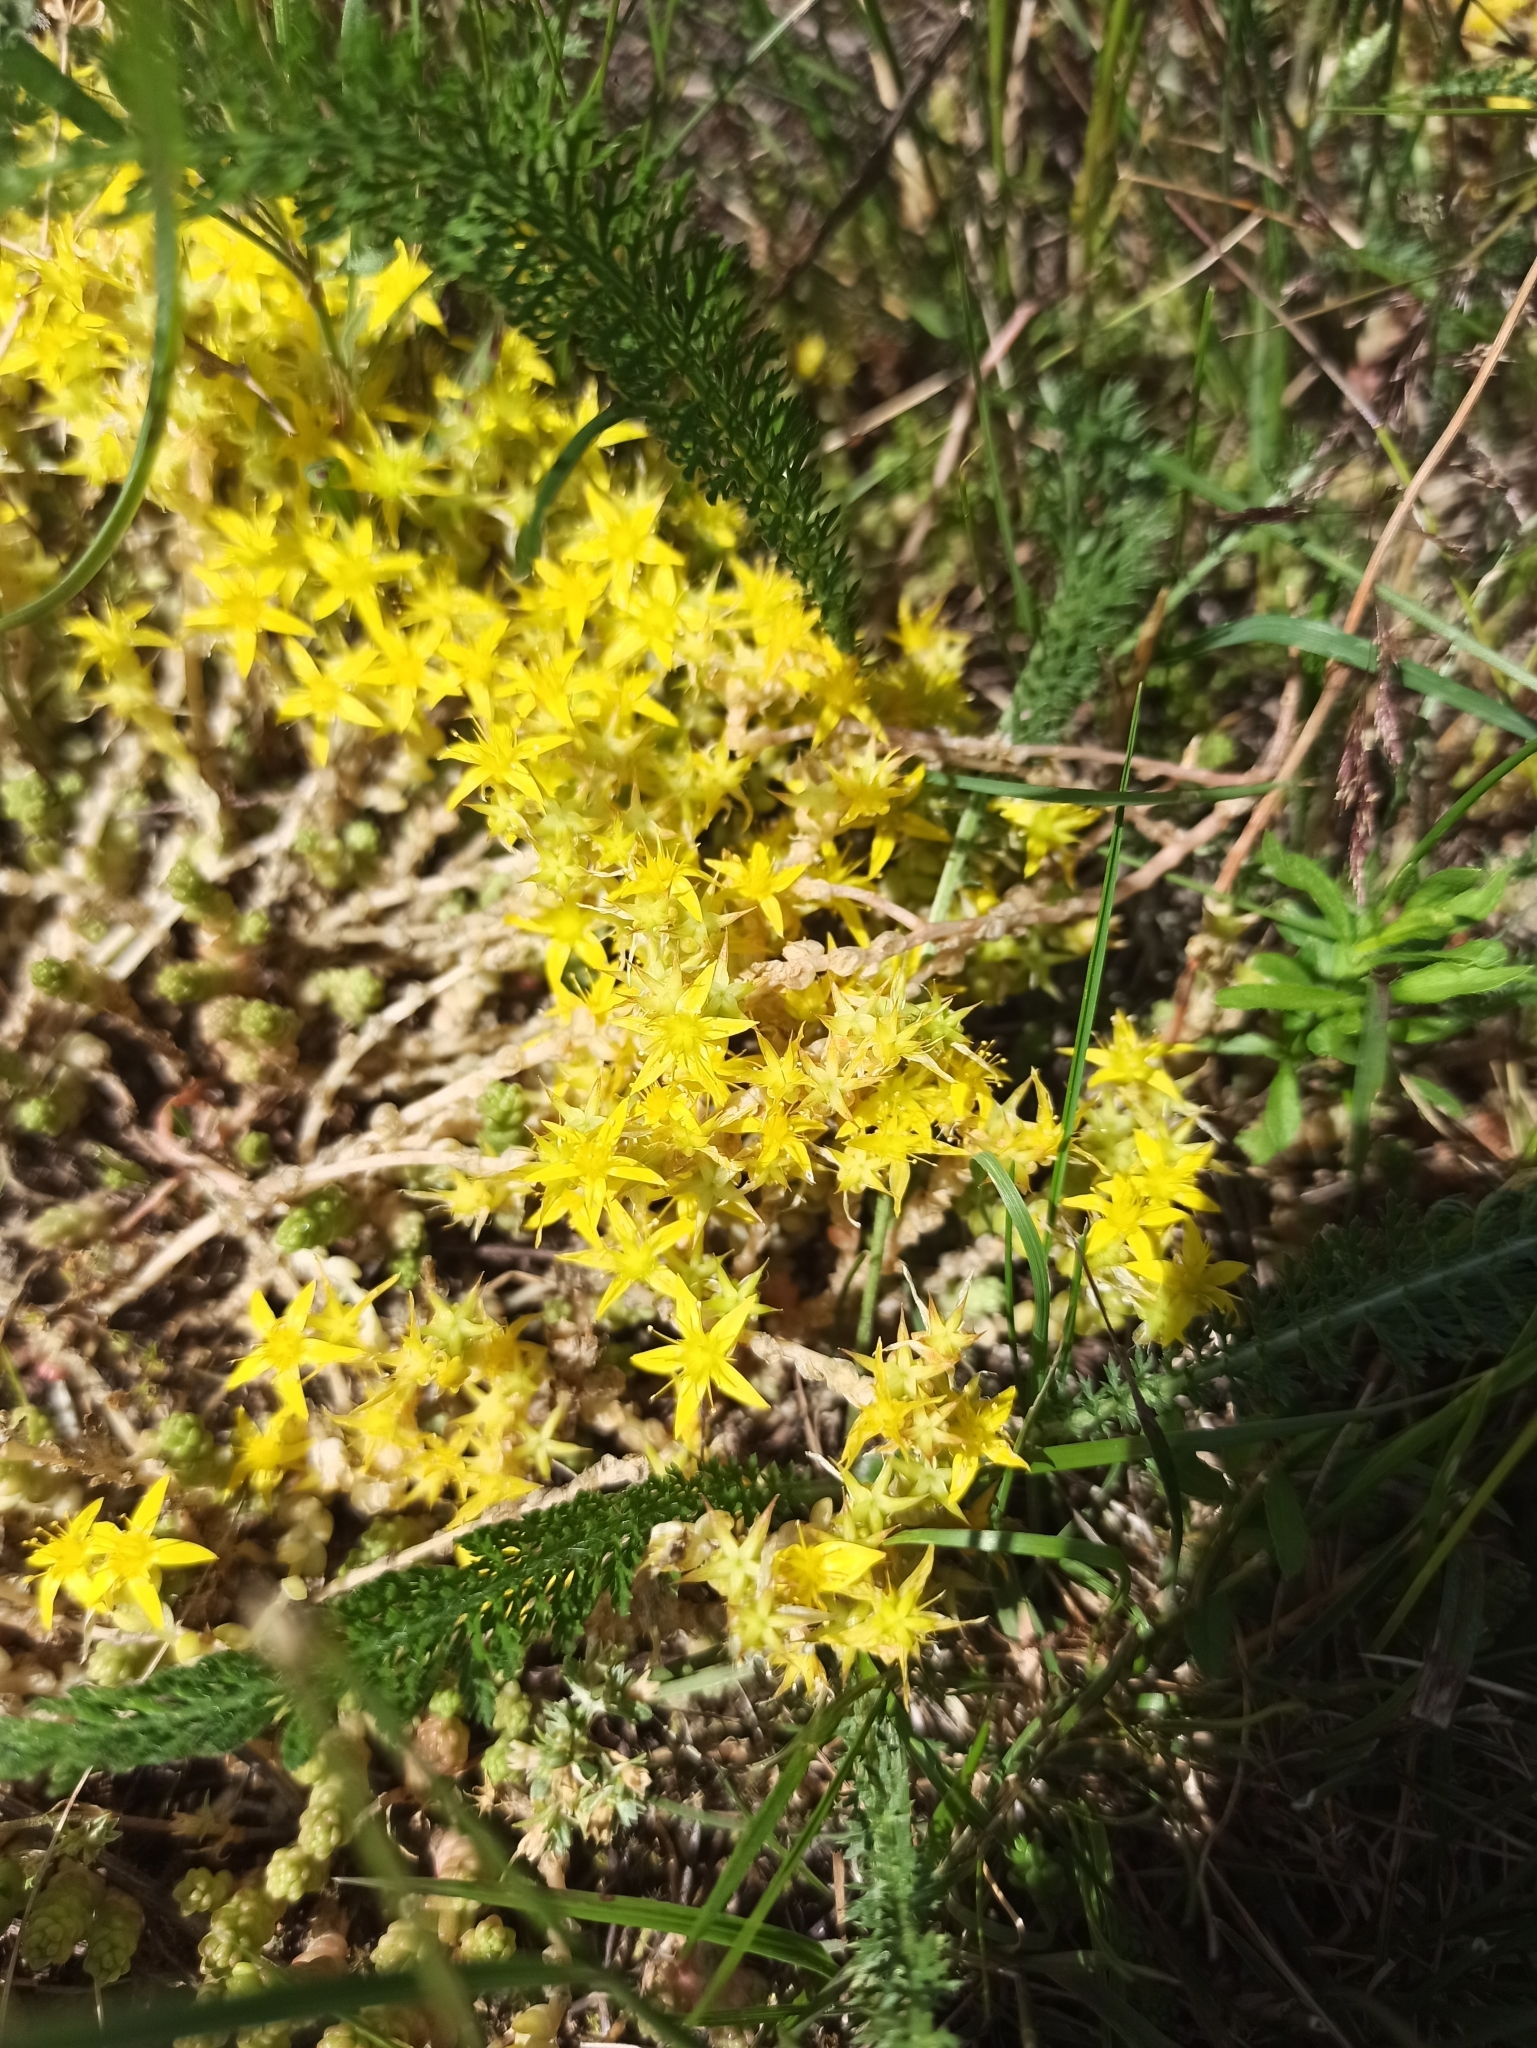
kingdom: Plantae
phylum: Tracheophyta
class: Magnoliopsida
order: Saxifragales
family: Crassulaceae
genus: Sedum
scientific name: Sedum acre
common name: Biting stonecrop
